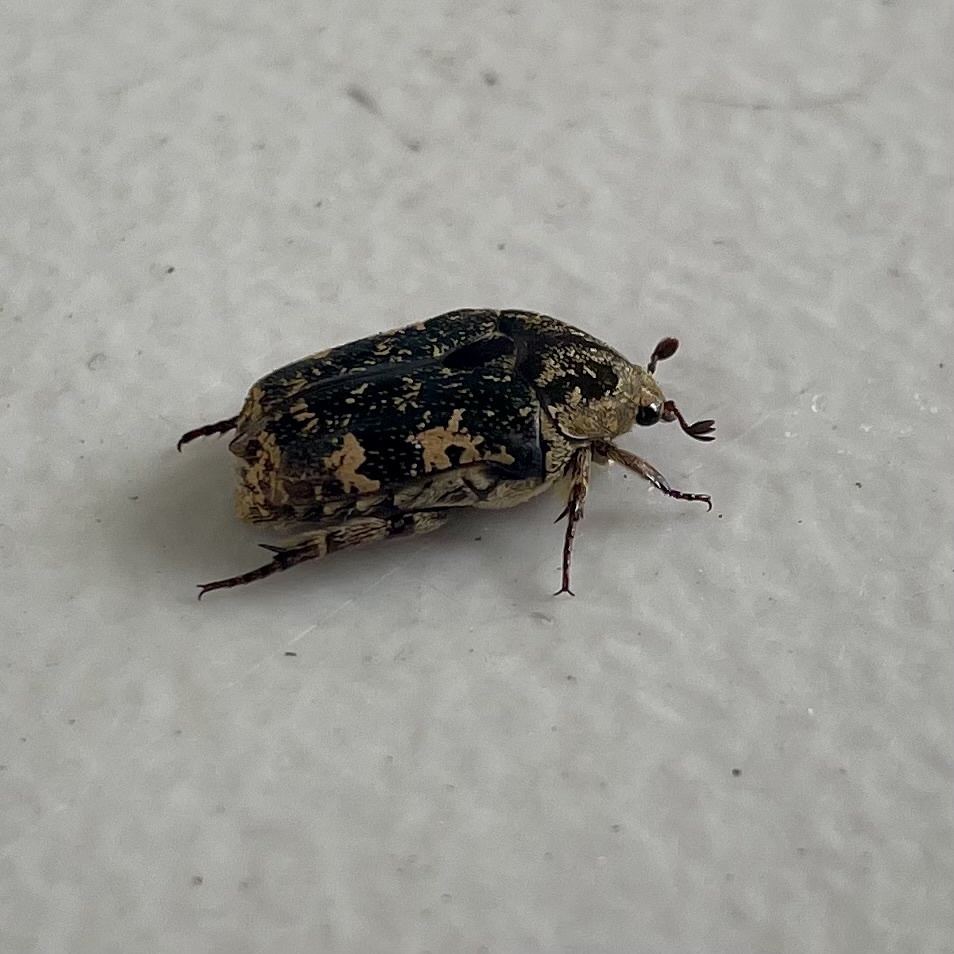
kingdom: Animalia
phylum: Arthropoda
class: Insecta
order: Coleoptera
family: Scarabaeidae
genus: Protaetia
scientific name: Protaetia fusca
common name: Mango flower beetle
